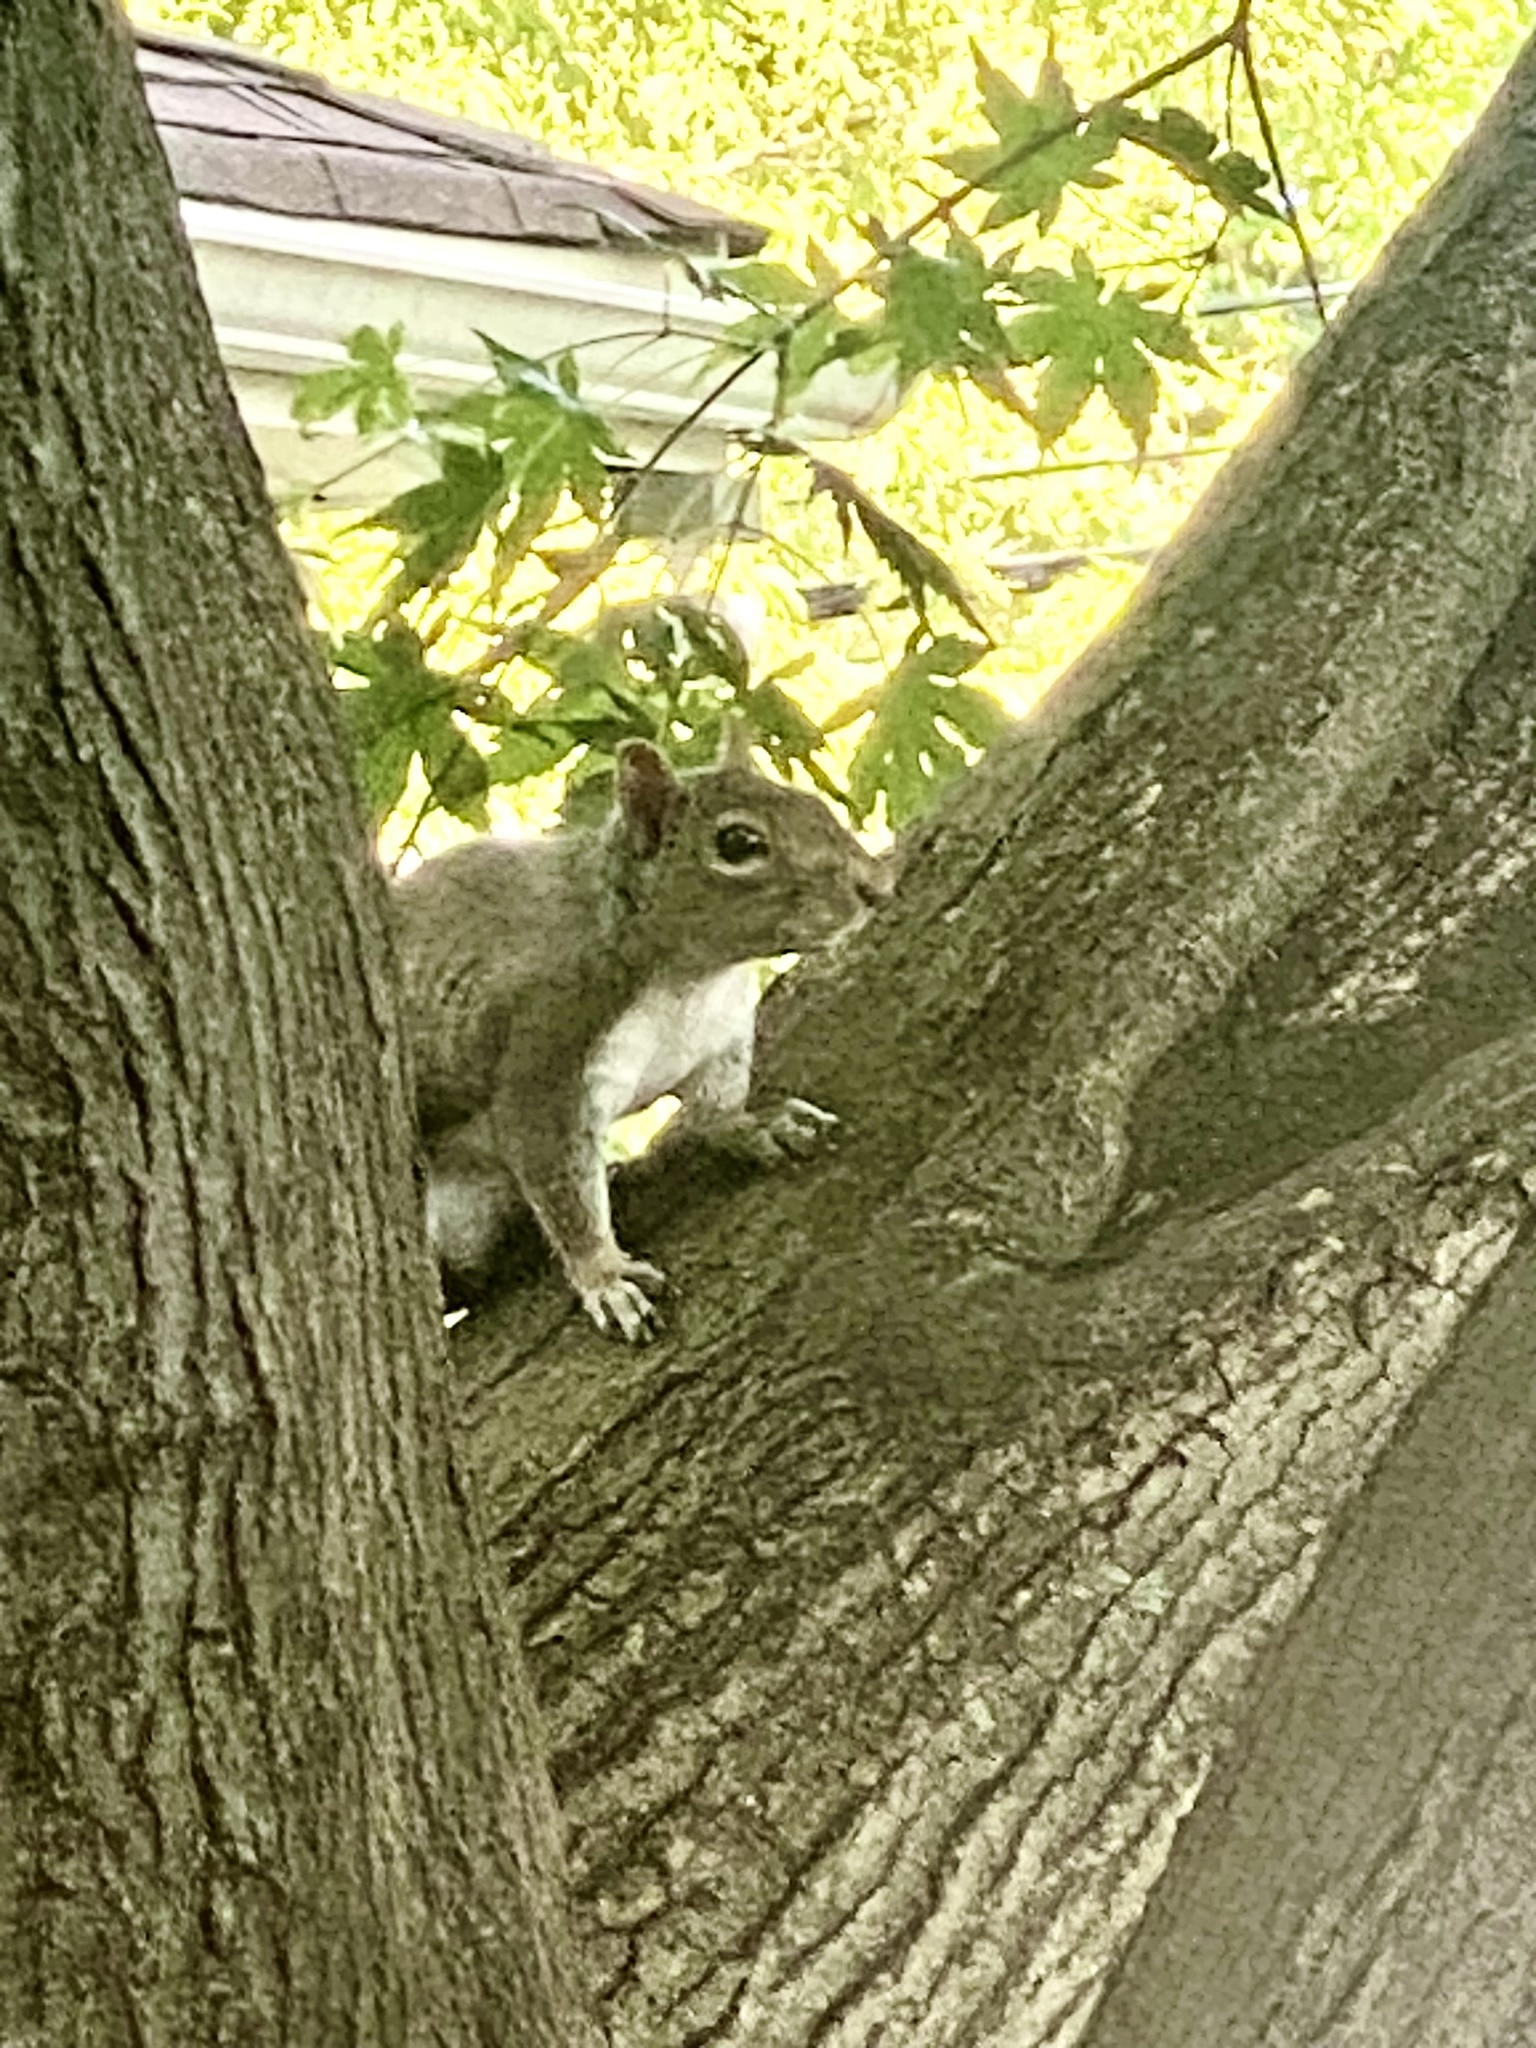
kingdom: Animalia
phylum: Chordata
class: Mammalia
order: Rodentia
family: Sciuridae
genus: Sciurus
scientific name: Sciurus carolinensis
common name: Eastern gray squirrel
